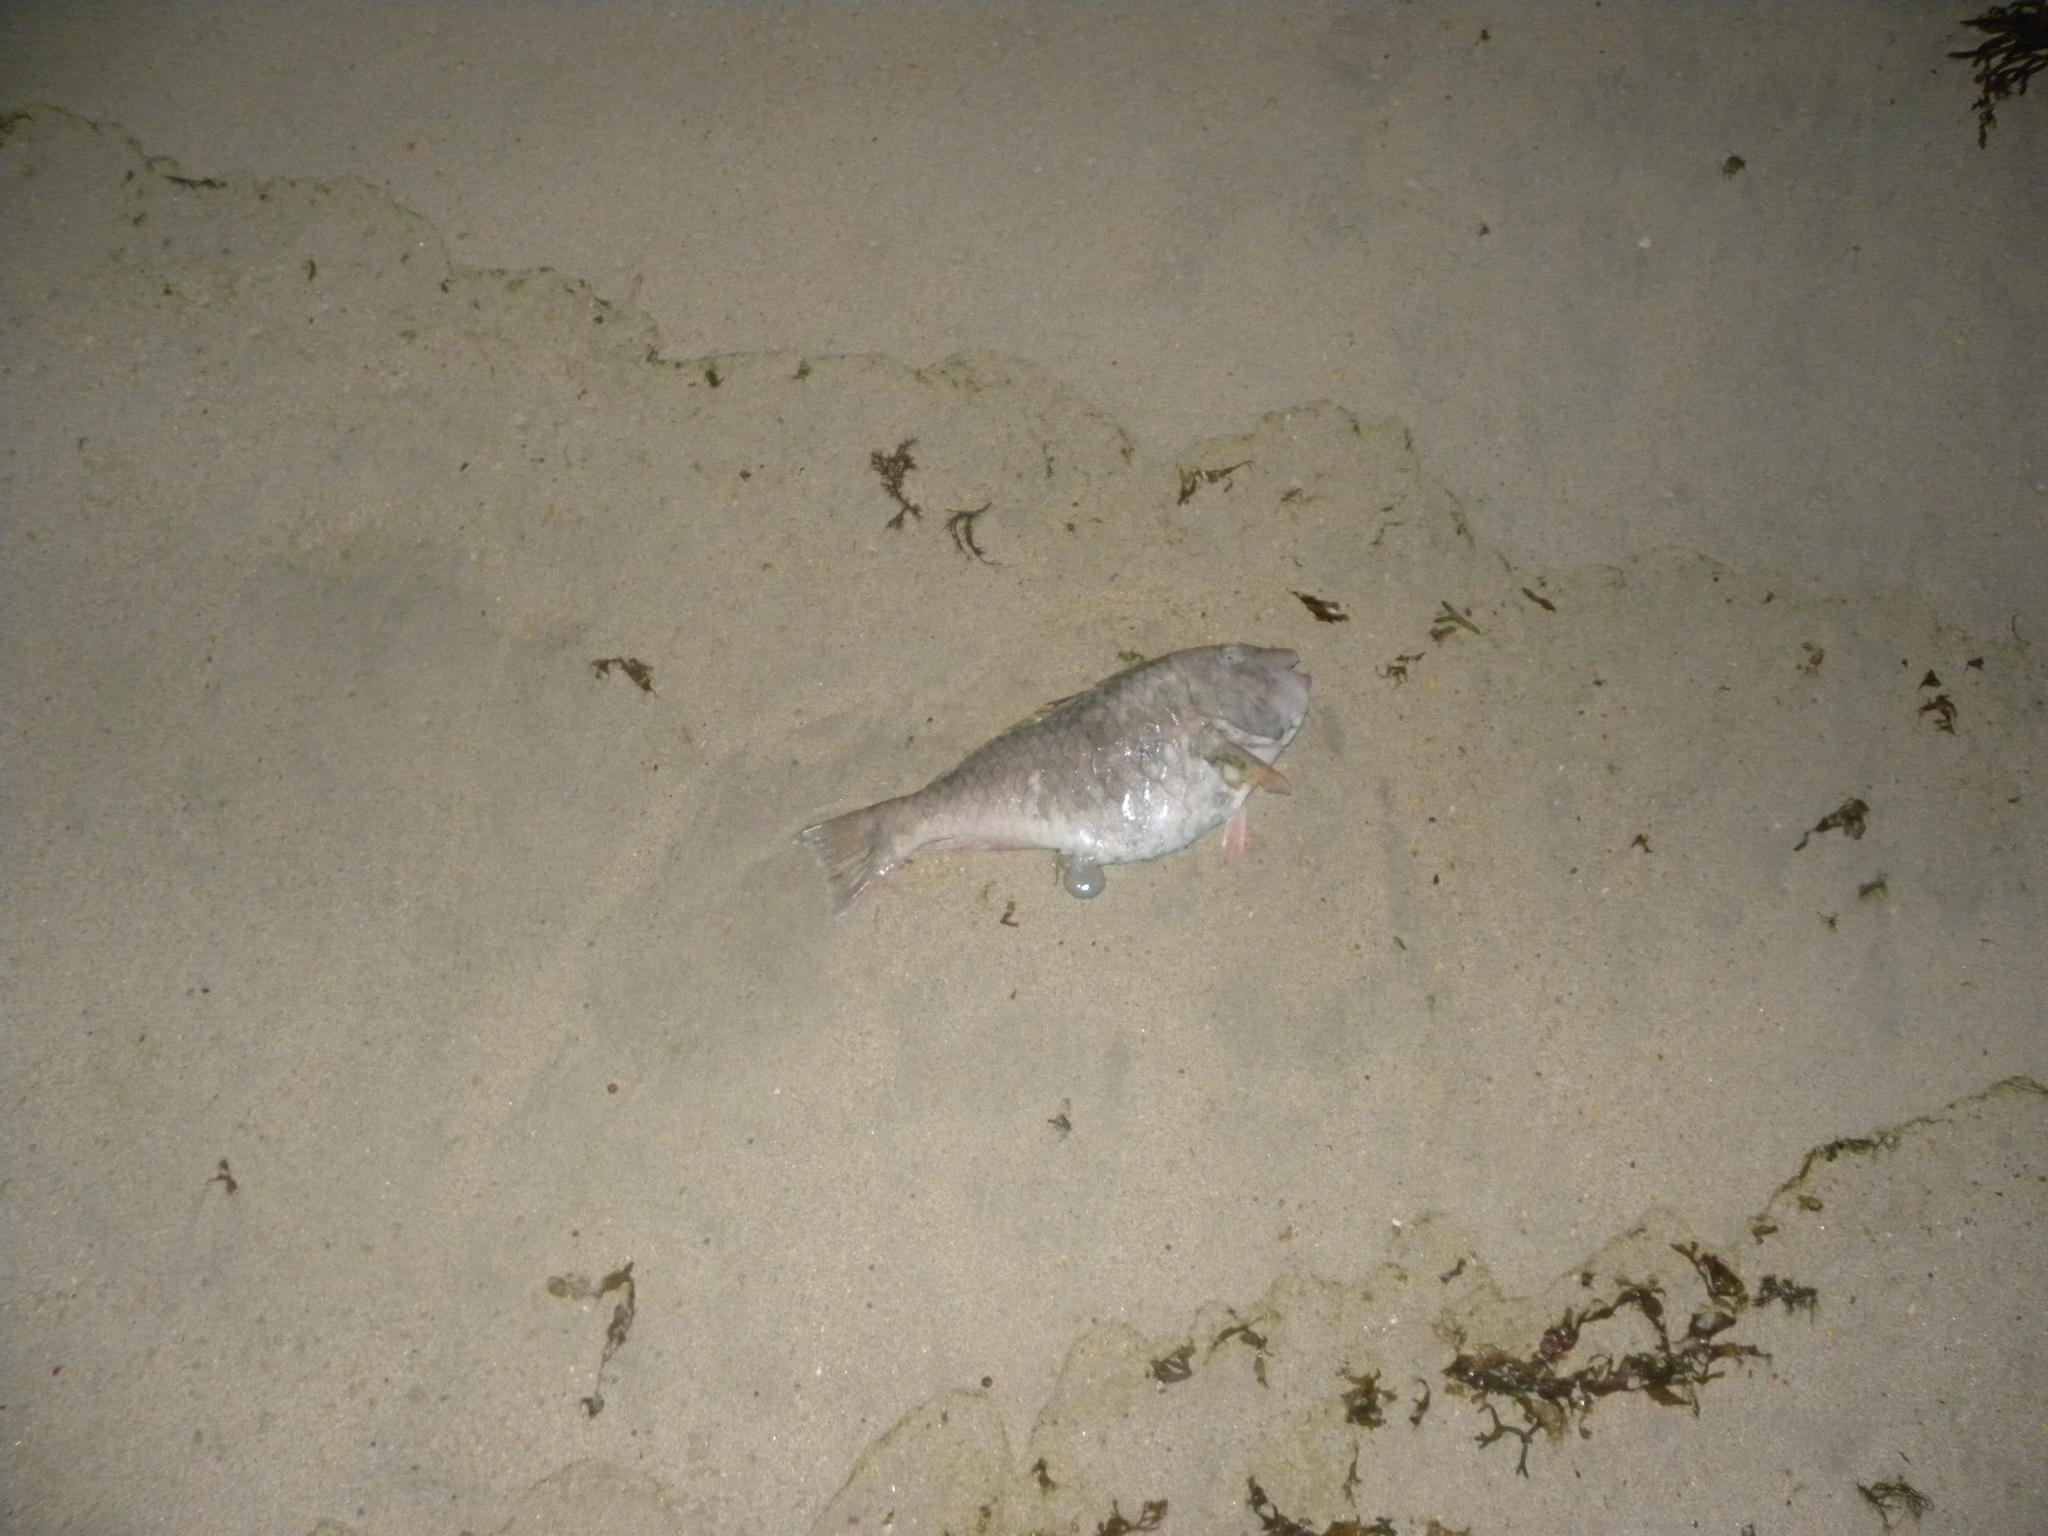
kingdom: Animalia
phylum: Chordata
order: Perciformes
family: Labridae
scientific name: Labridae
